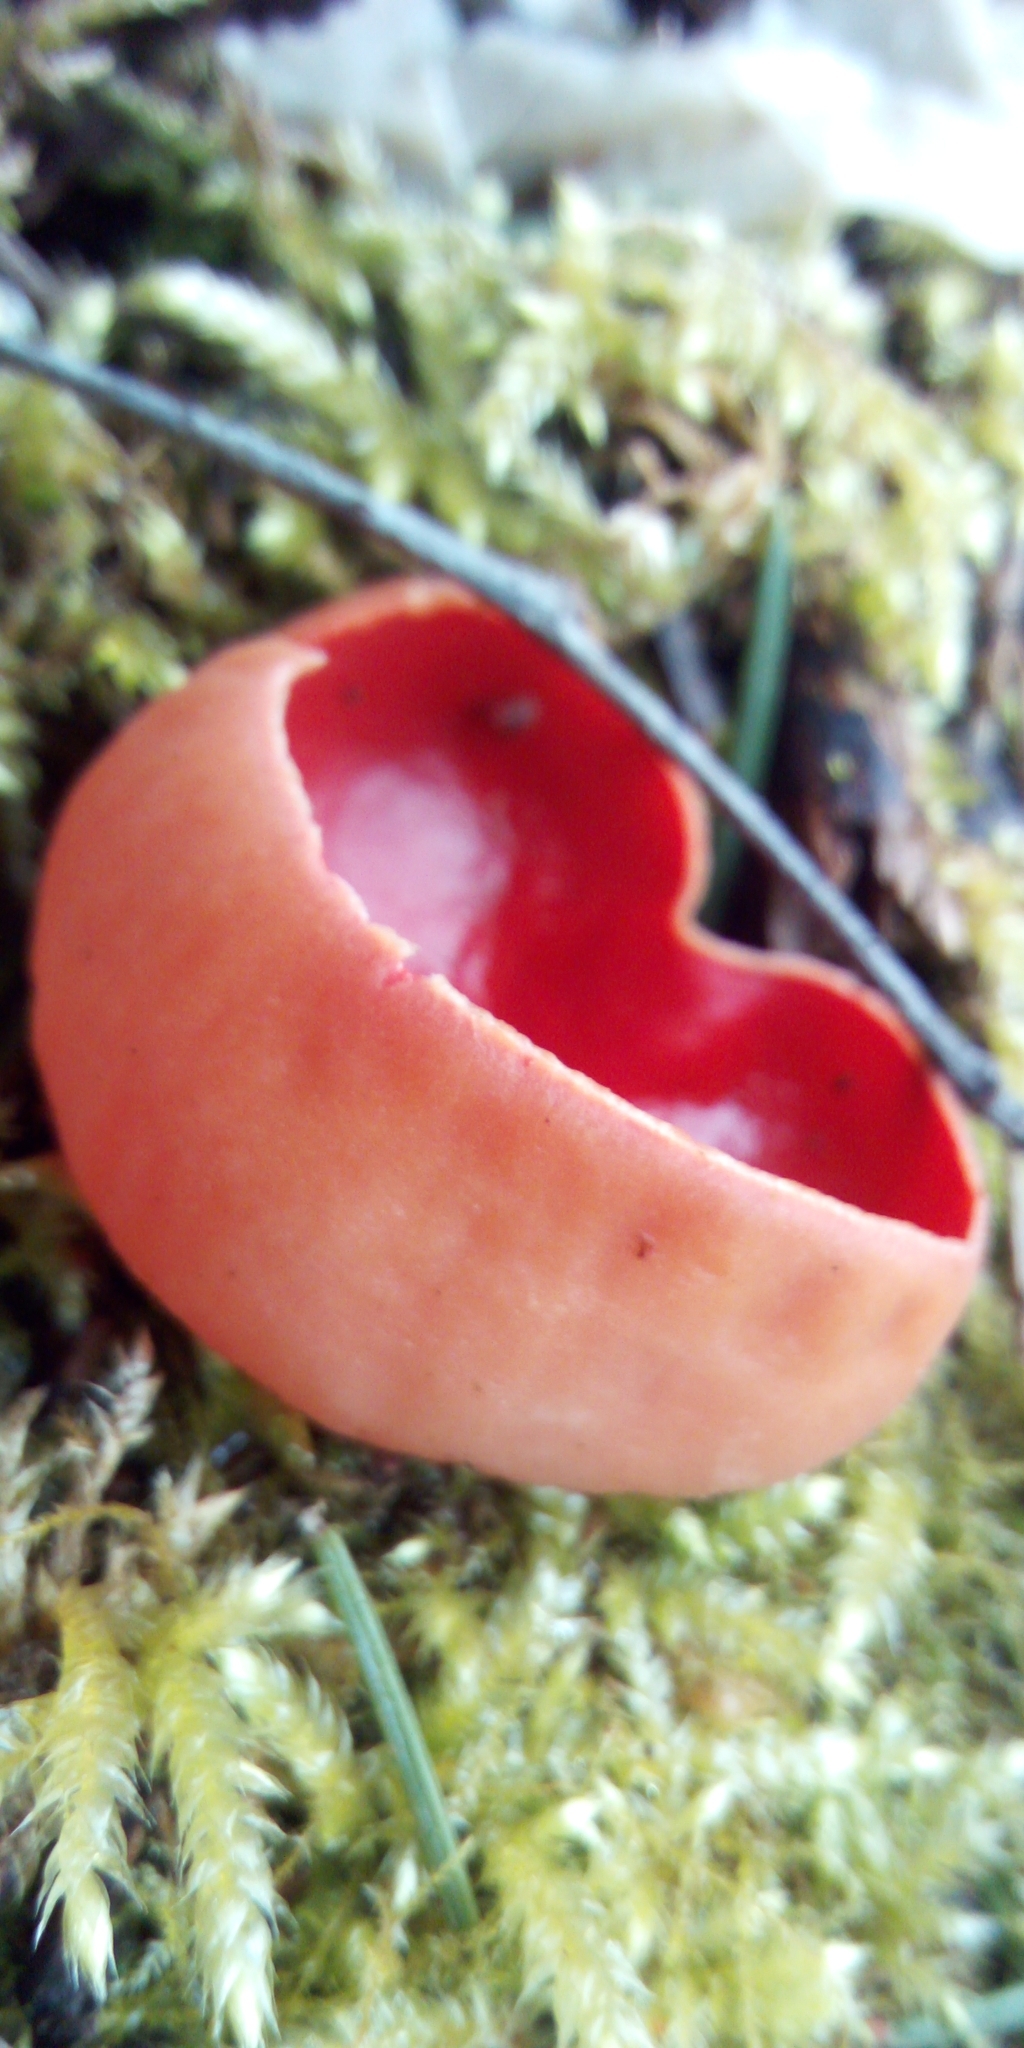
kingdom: Fungi
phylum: Ascomycota
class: Pezizomycetes
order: Pezizales
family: Sarcoscyphaceae
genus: Sarcoscypha
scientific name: Sarcoscypha
